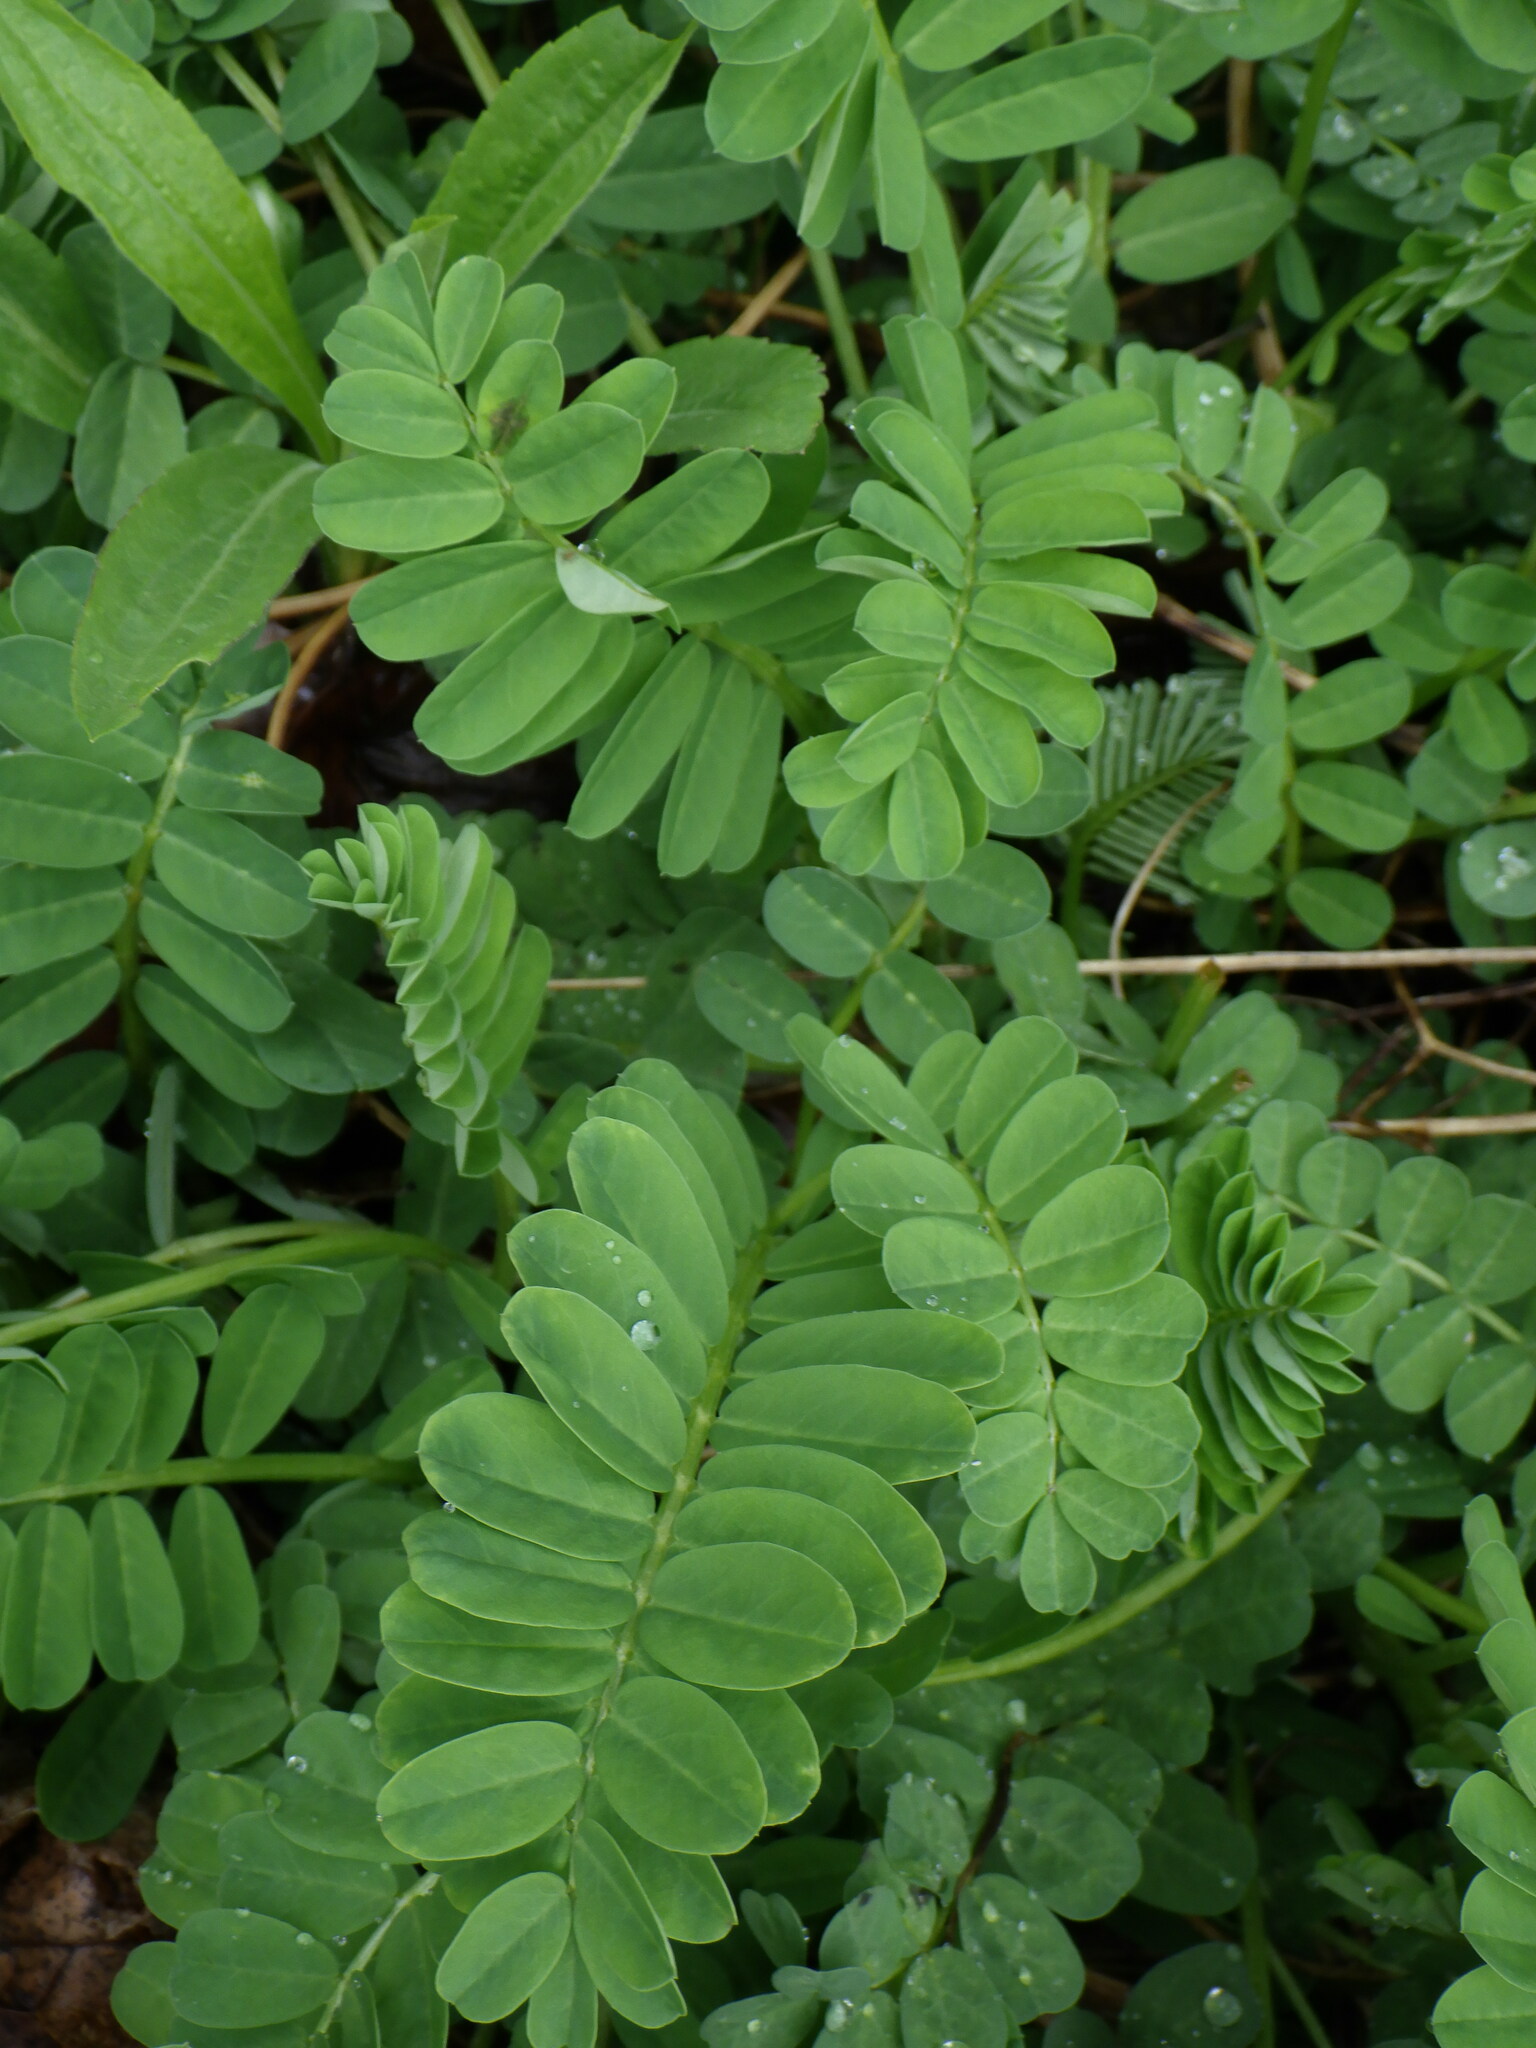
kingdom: Plantae
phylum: Tracheophyta
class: Magnoliopsida
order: Fabales
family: Fabaceae
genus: Coronilla
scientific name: Coronilla varia
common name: Crownvetch
